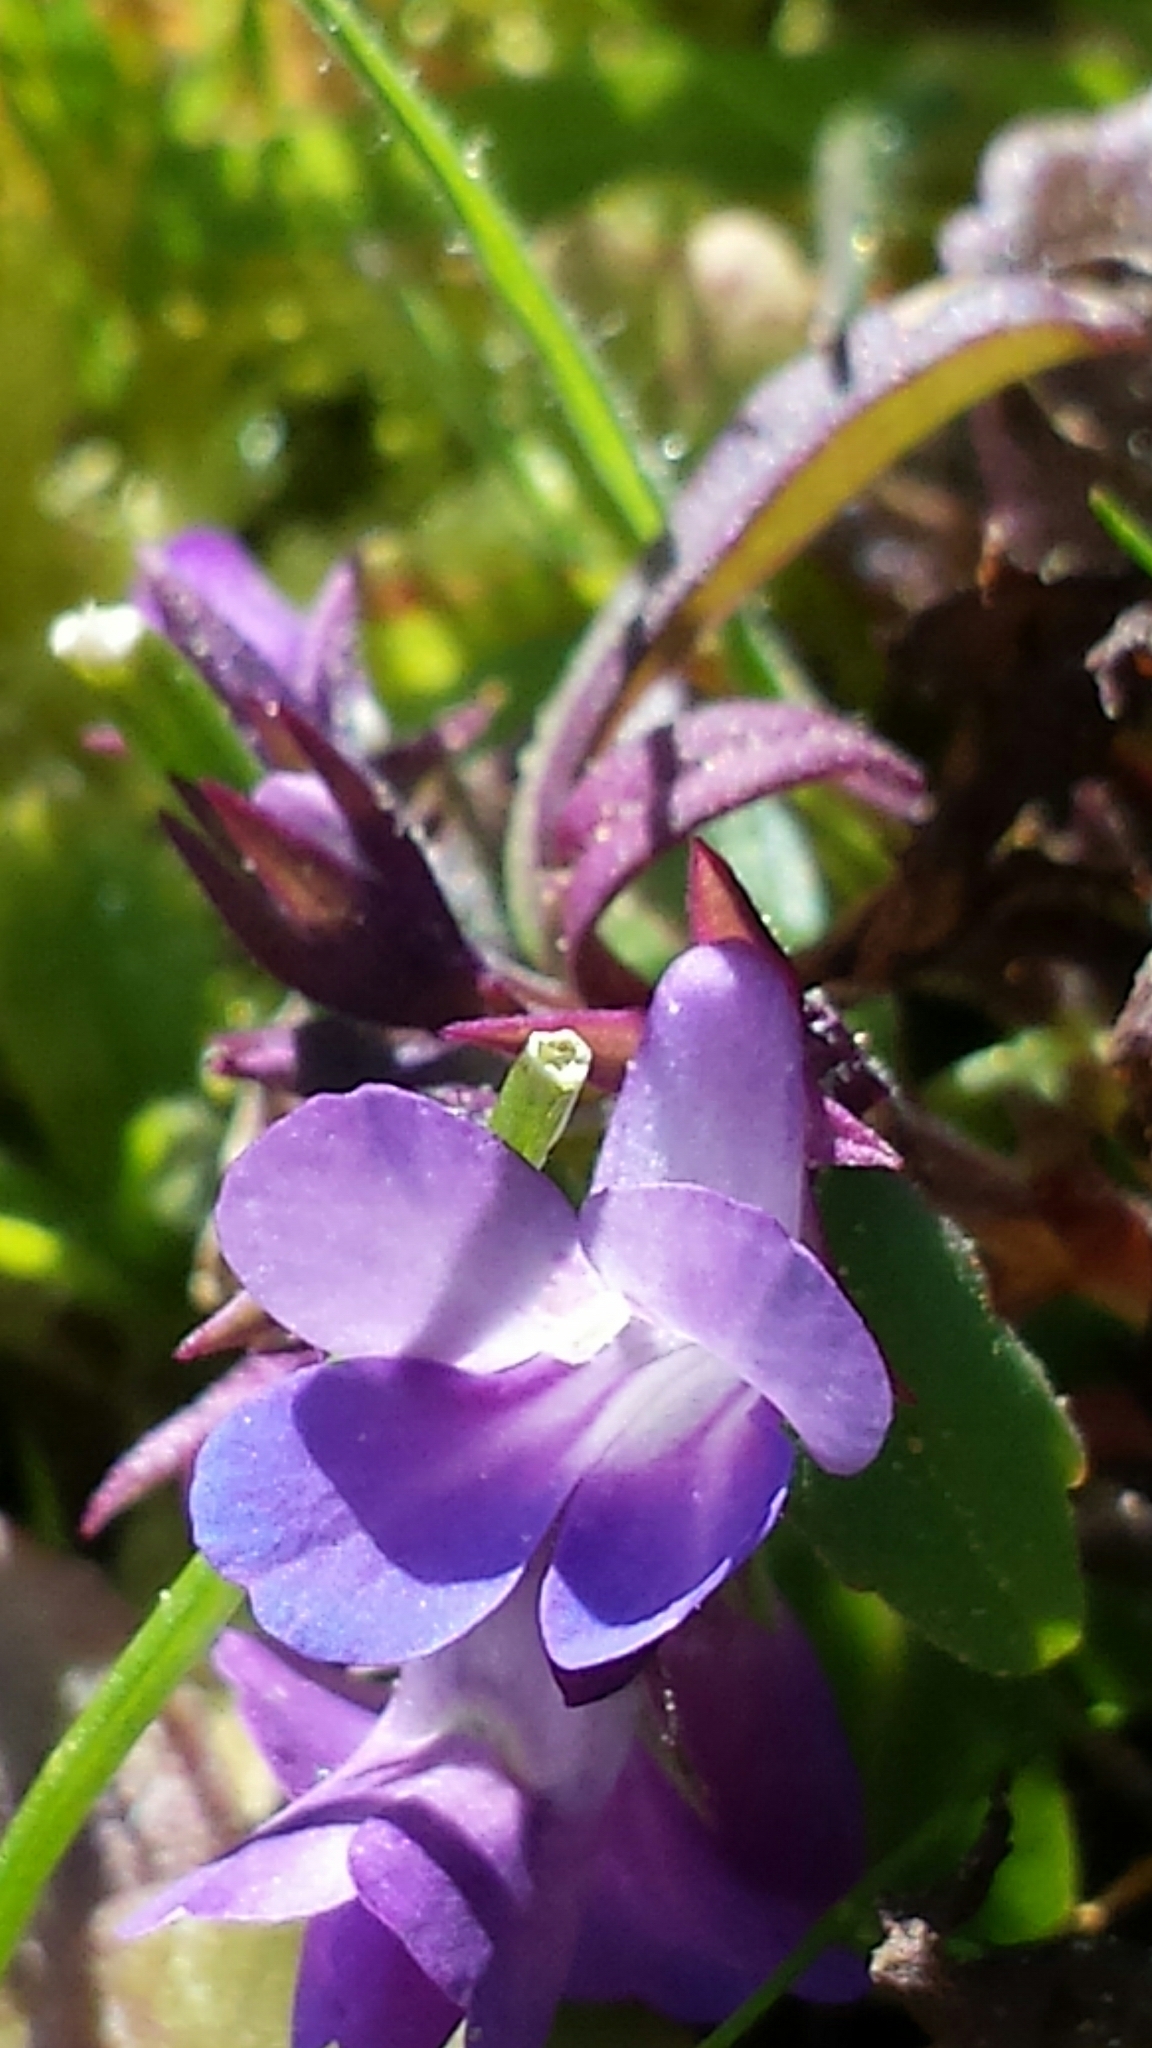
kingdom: Plantae
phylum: Tracheophyta
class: Magnoliopsida
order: Lamiales
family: Plantaginaceae
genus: Collinsia
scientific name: Collinsia parviflora
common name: Blue-lips
